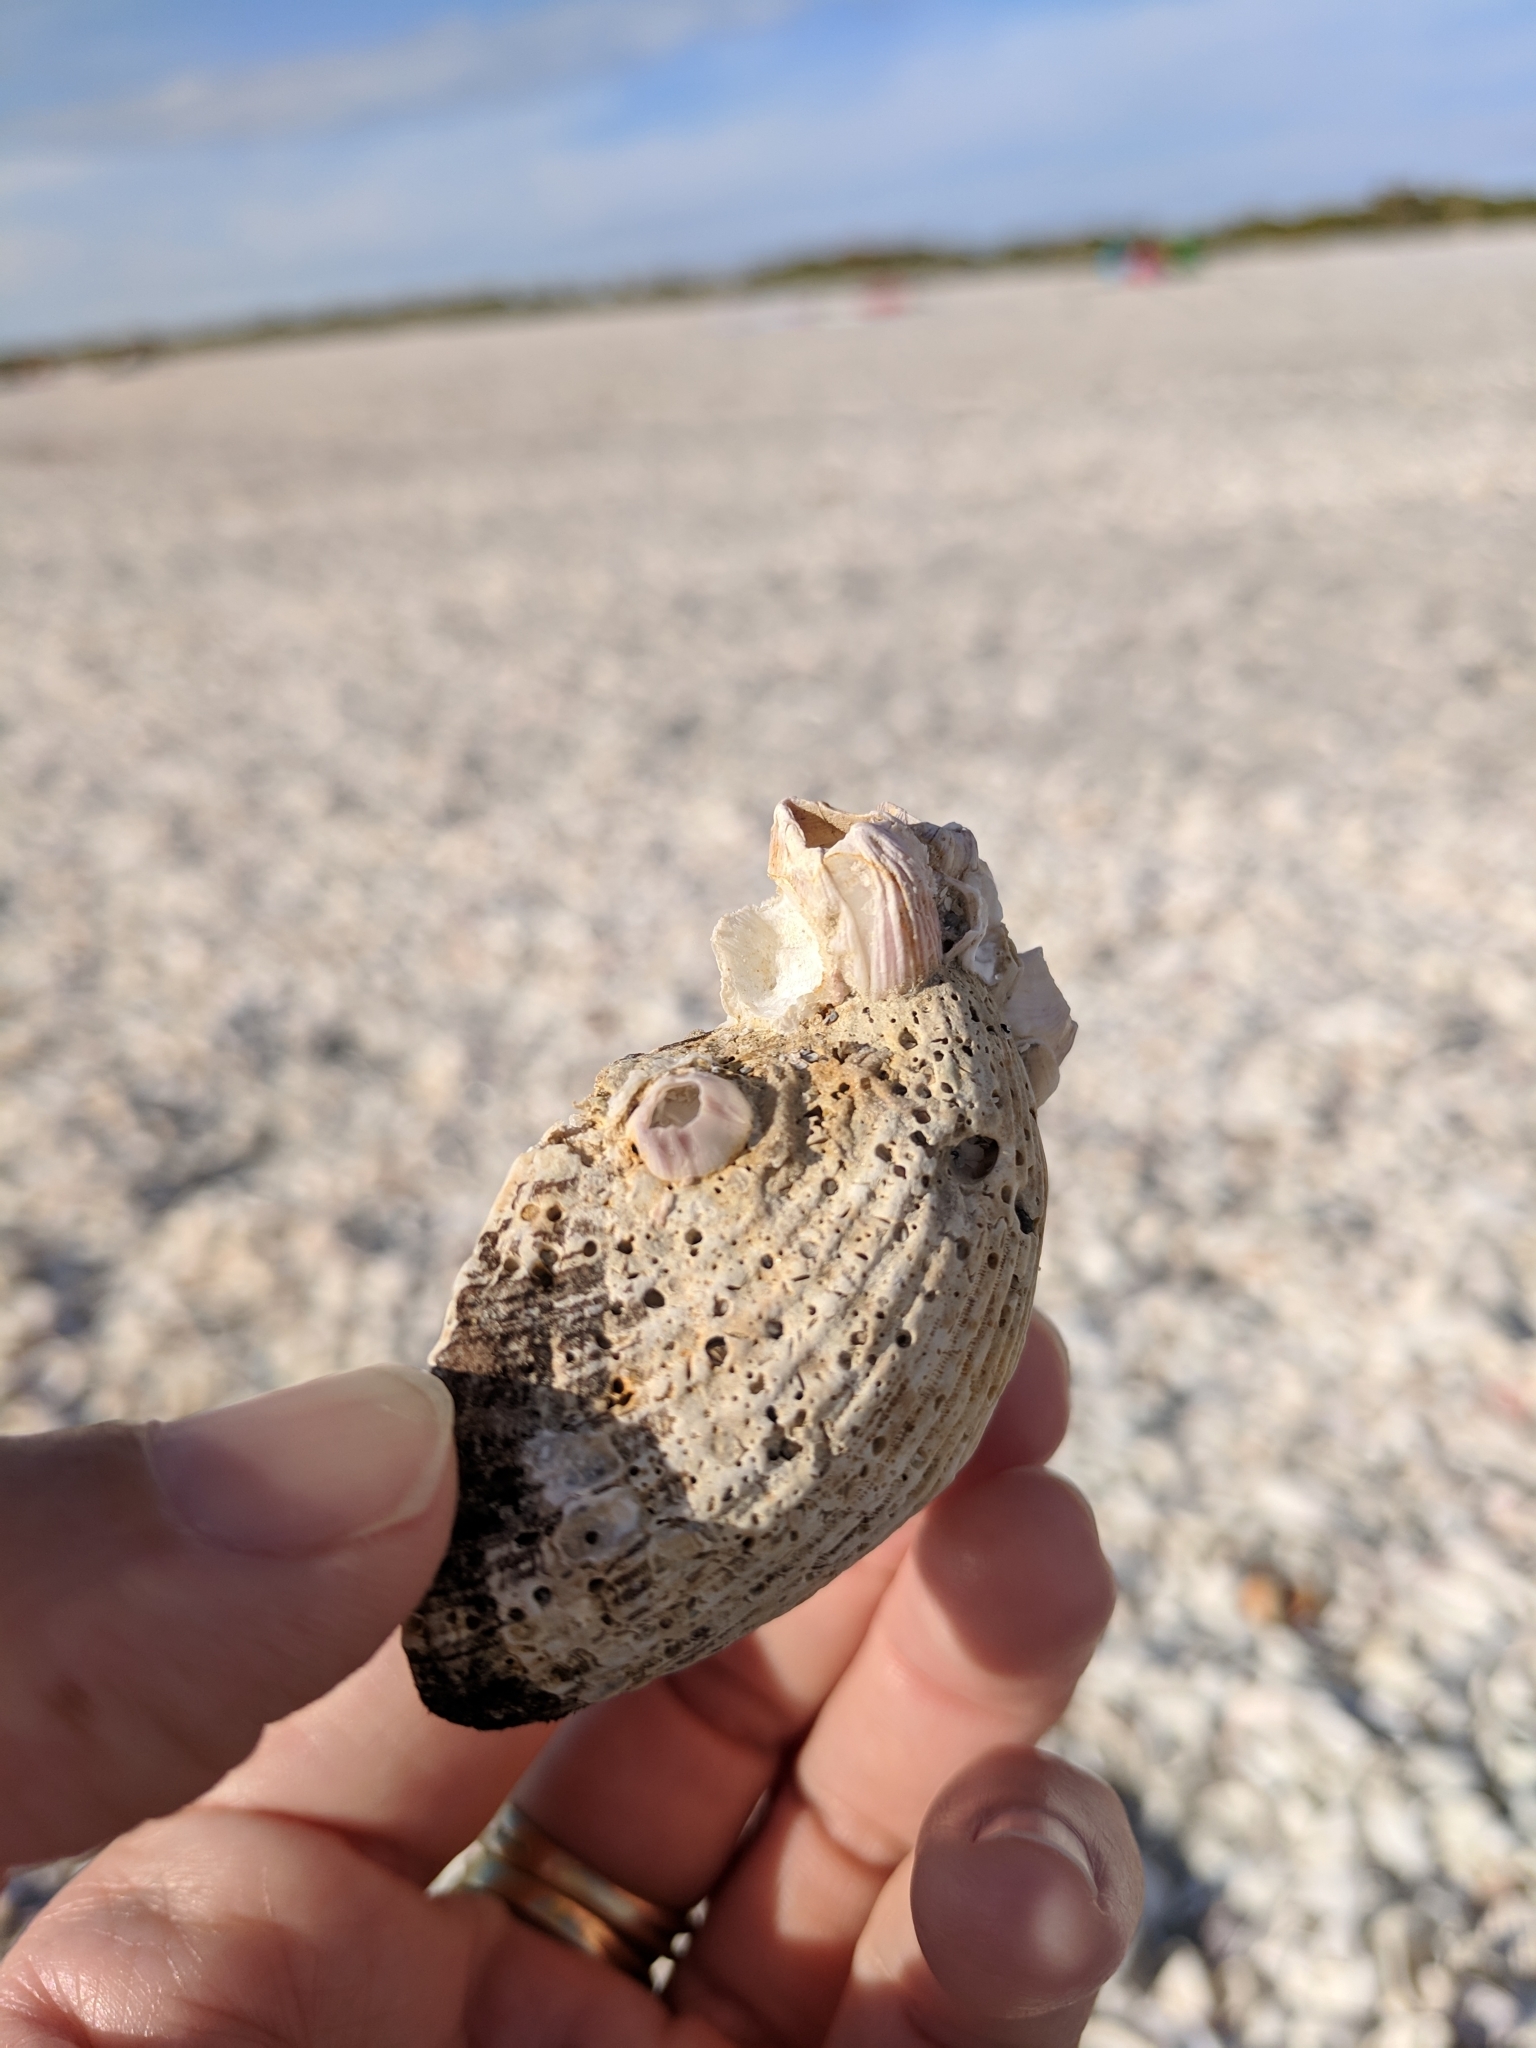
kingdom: Animalia
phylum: Arthropoda
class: Maxillopoda
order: Sessilia
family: Balanidae
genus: Balanus
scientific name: Balanus trigonus
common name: Triangle barnacle
